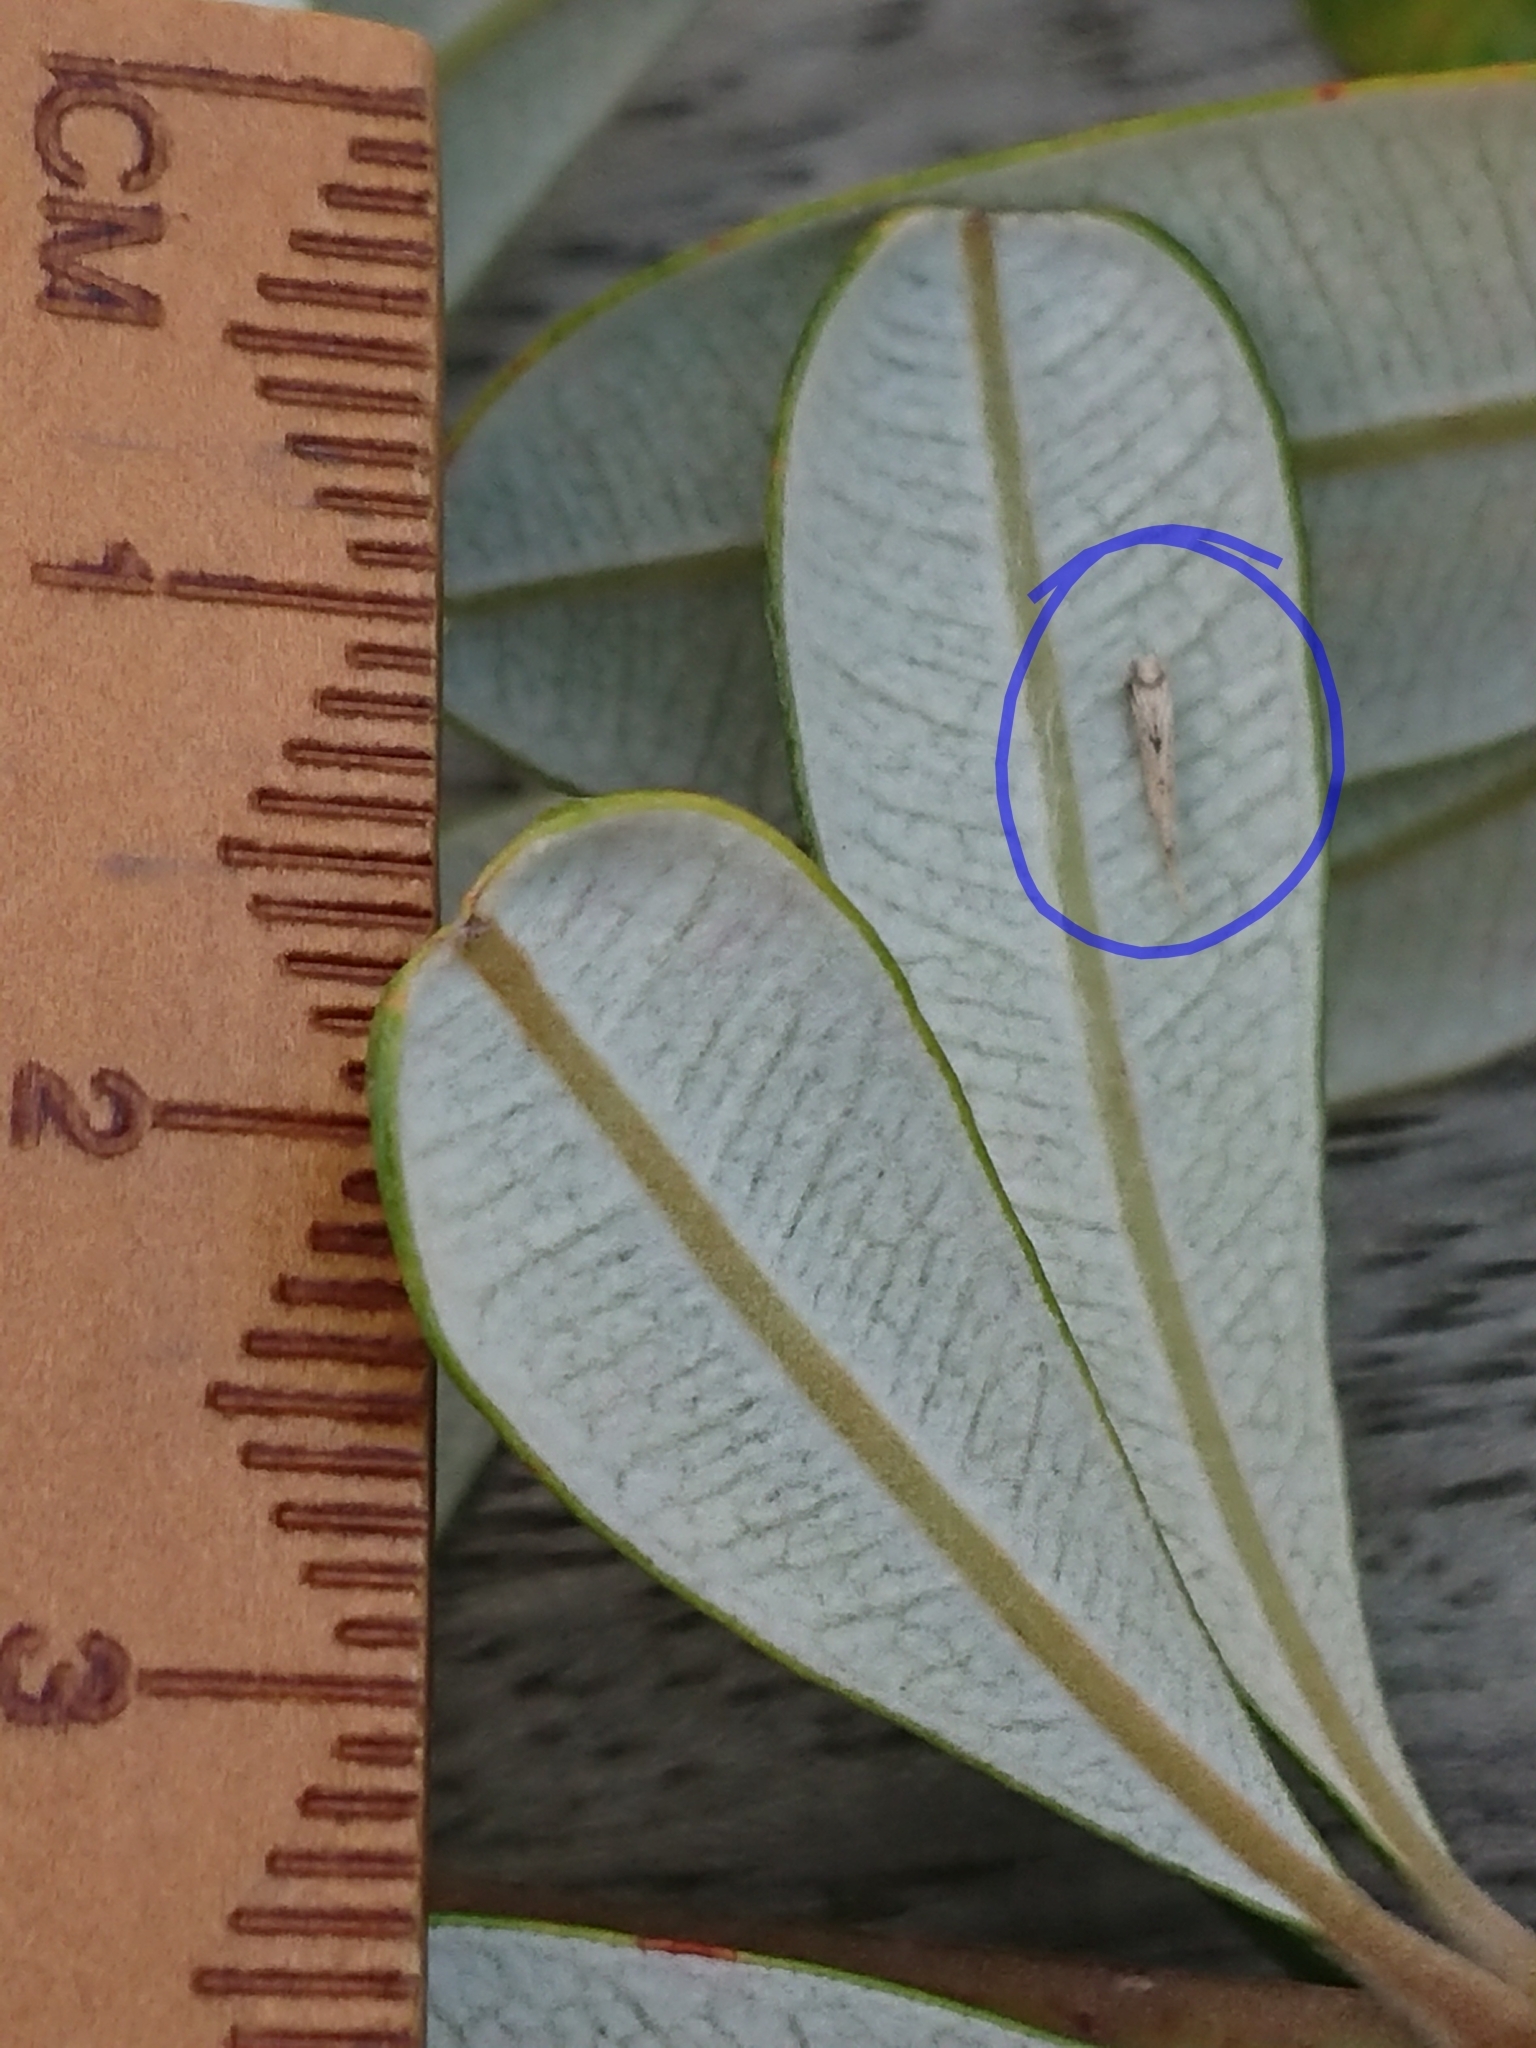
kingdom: Animalia
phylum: Arthropoda
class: Insecta
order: Lepidoptera
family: Lyonetiidae
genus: Stegommata
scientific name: Stegommata sulfuratella
